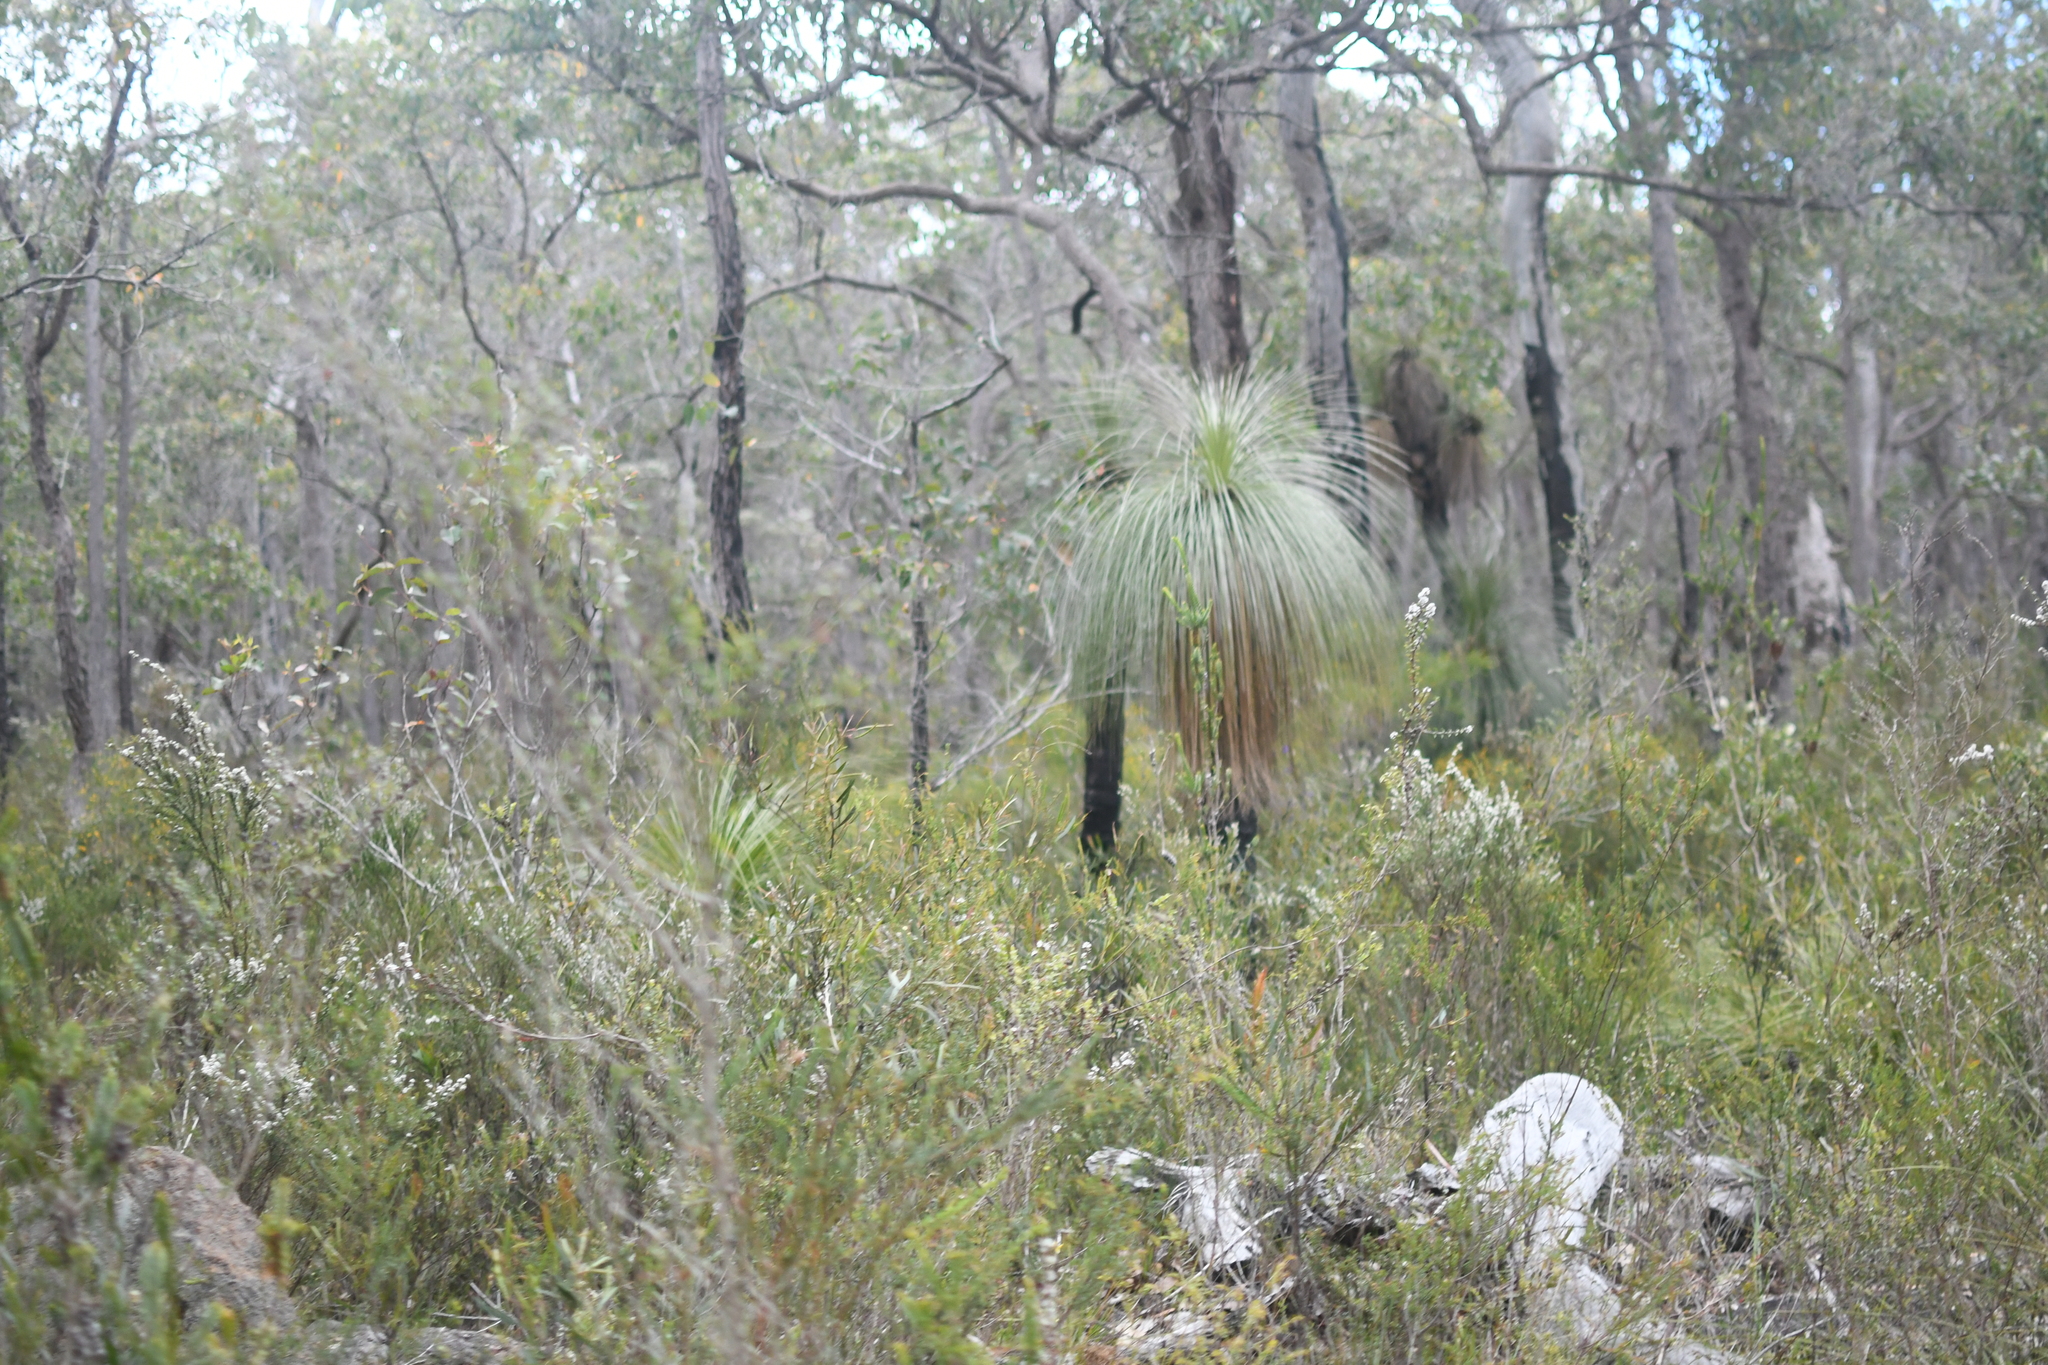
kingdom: Plantae
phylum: Tracheophyta
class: Liliopsida
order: Arecales
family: Dasypogonaceae
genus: Kingia
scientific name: Kingia australis
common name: Black gin
